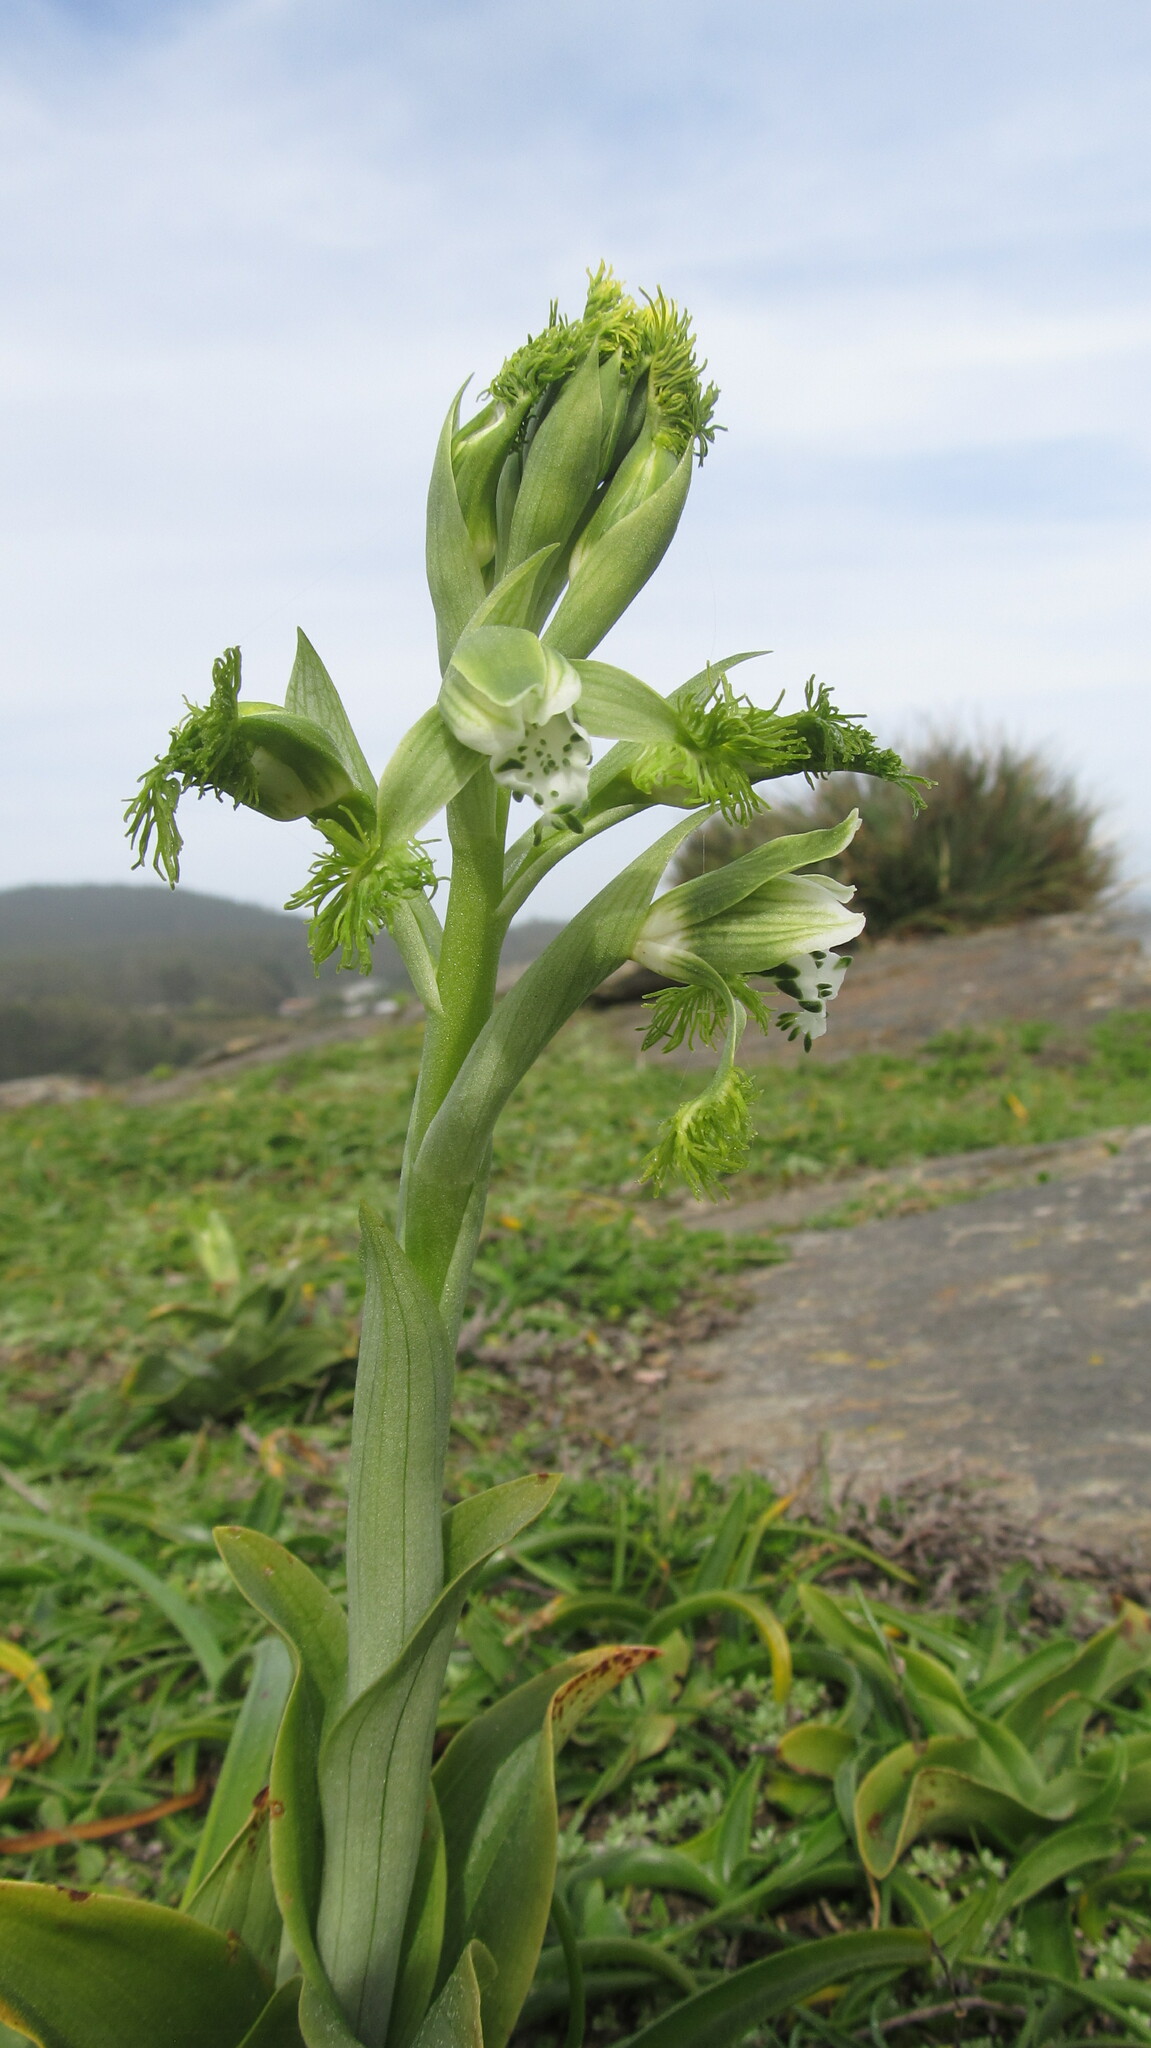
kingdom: Plantae
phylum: Tracheophyta
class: Liliopsida
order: Asparagales
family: Orchidaceae
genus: Bipinnula
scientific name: Bipinnula fimbriata
